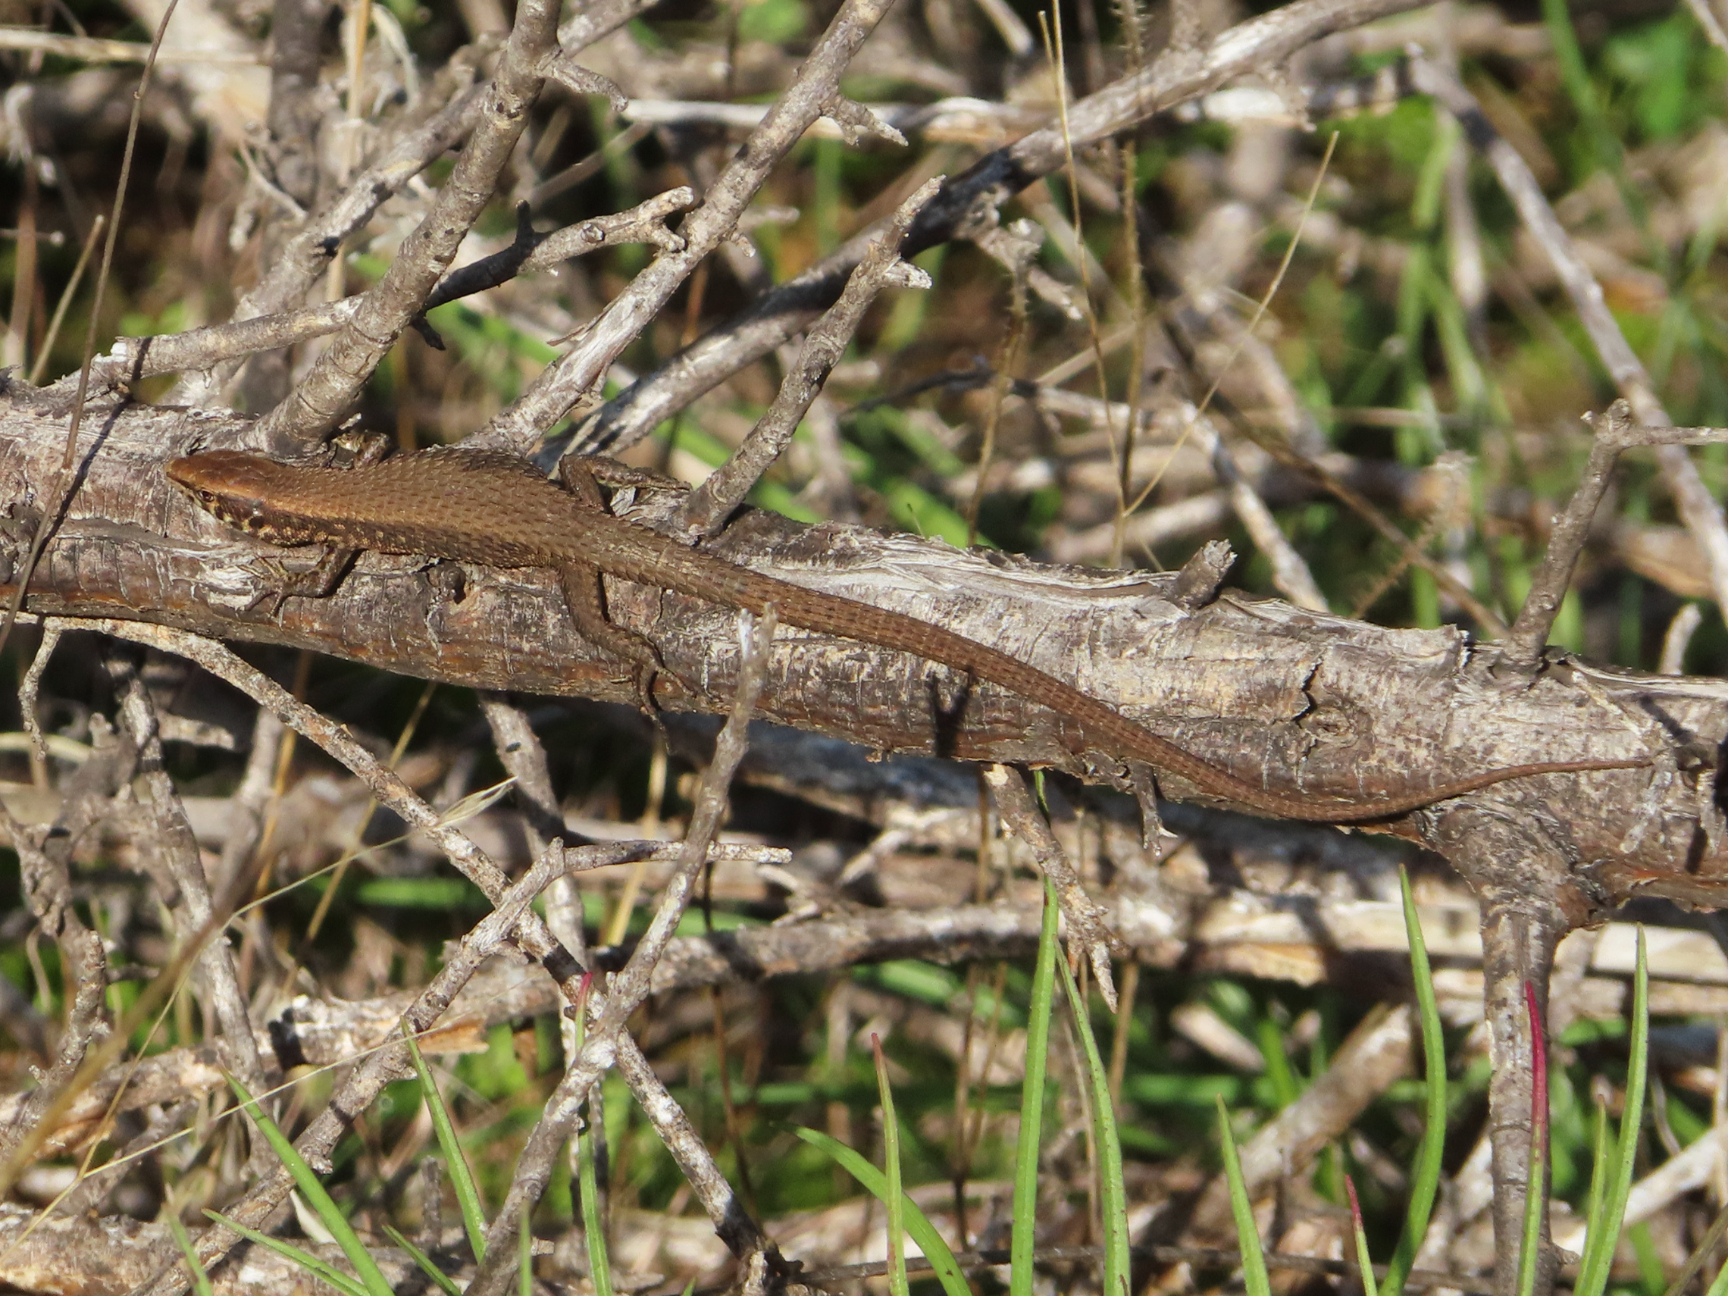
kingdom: Animalia
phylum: Chordata
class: Squamata
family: Lacertidae
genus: Algyroides
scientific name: Algyroides moreoticus
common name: Greek algyroides
